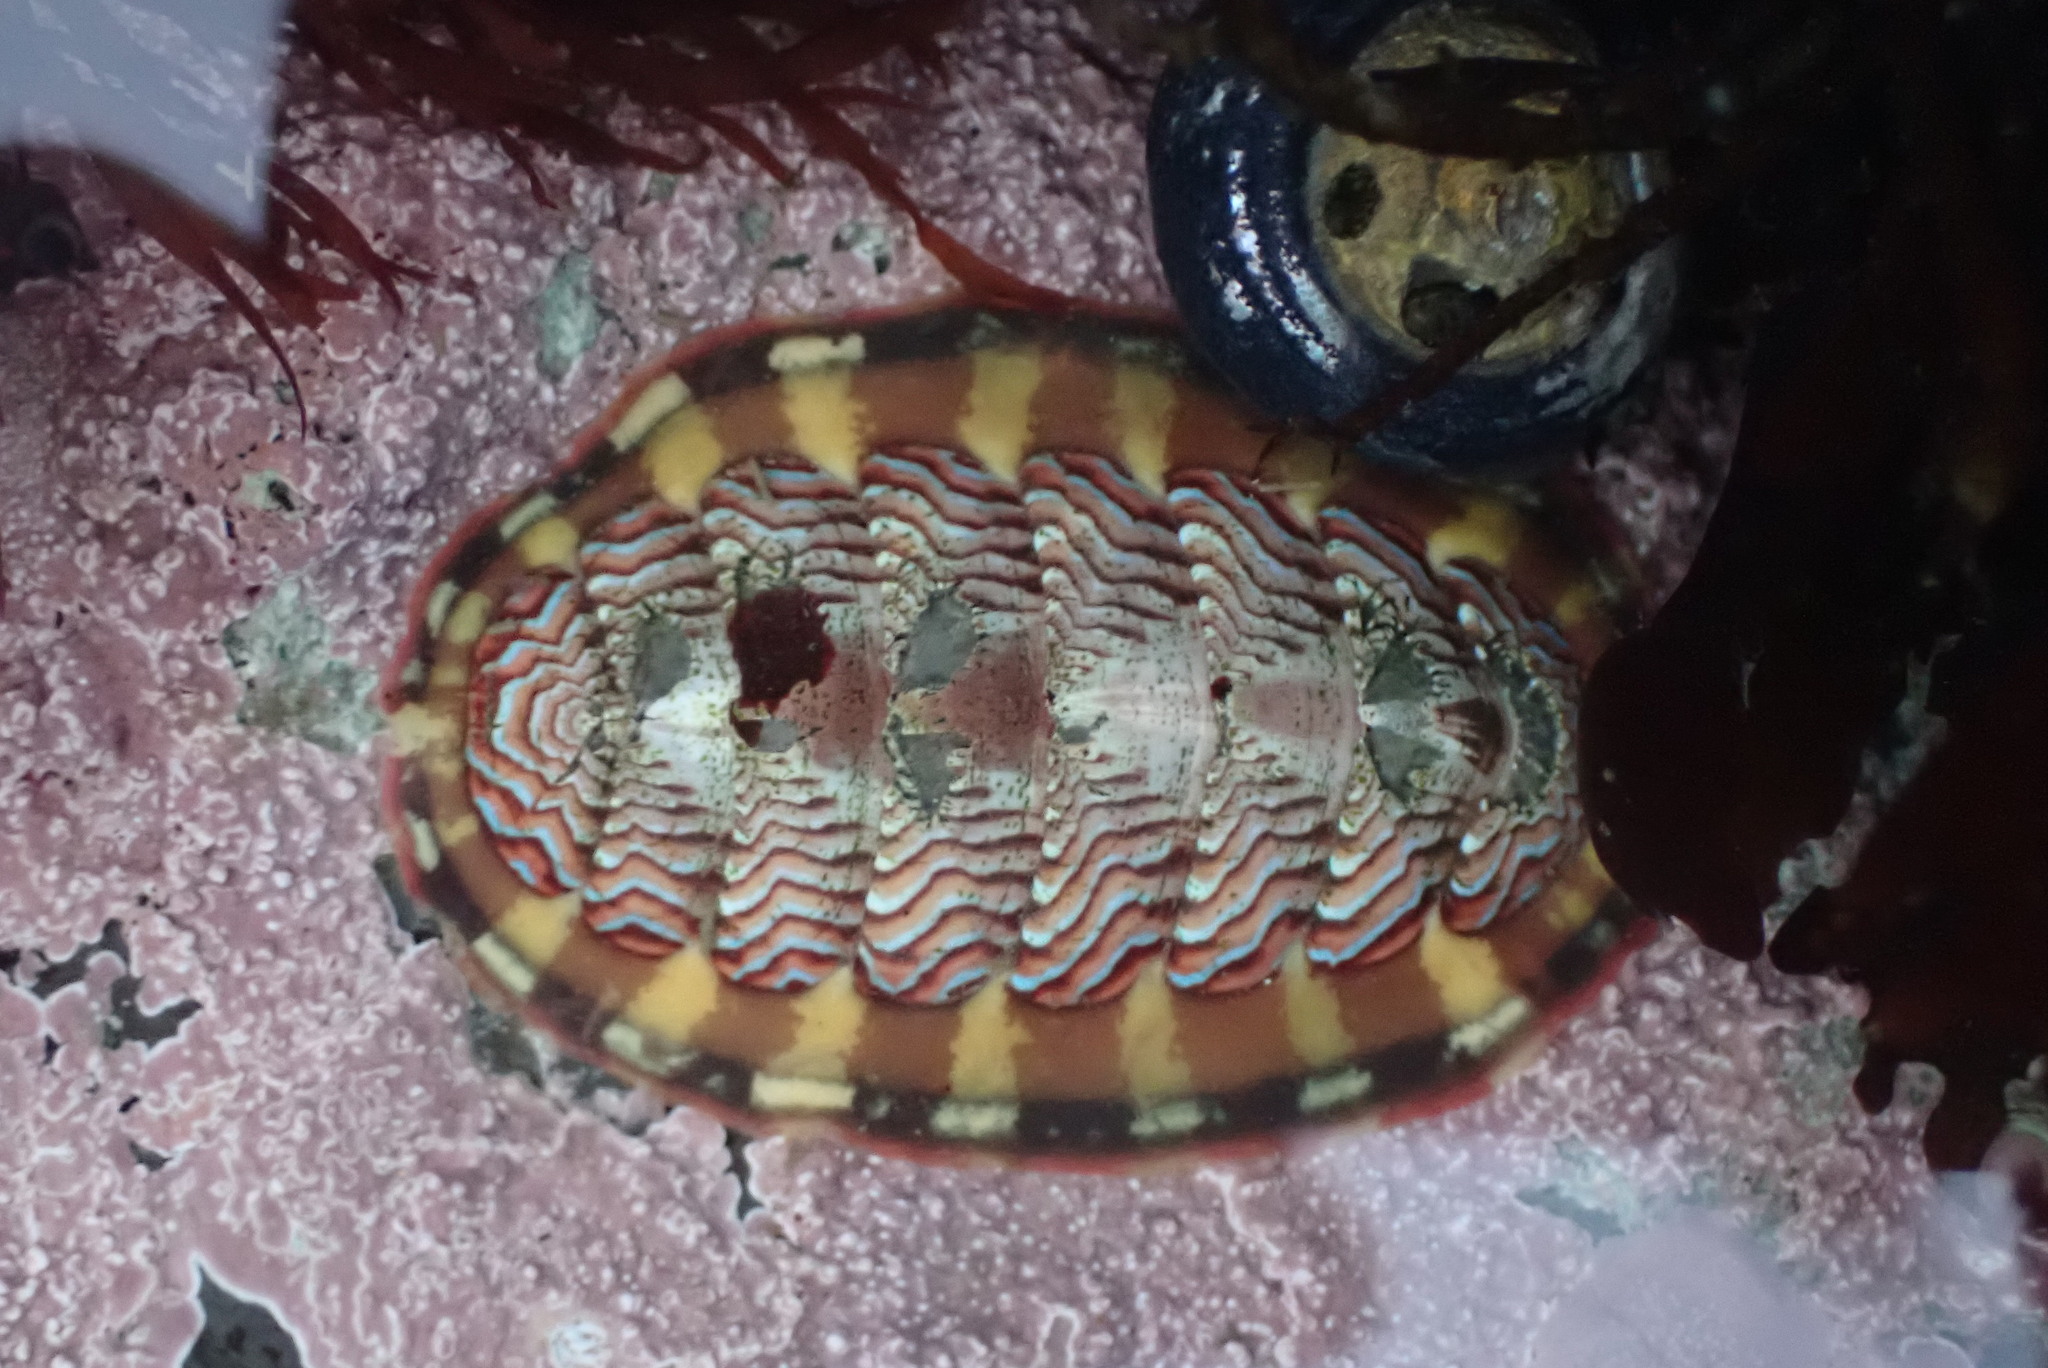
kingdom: Animalia
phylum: Mollusca
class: Polyplacophora
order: Chitonida
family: Tonicellidae
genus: Tonicella
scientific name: Tonicella lokii
